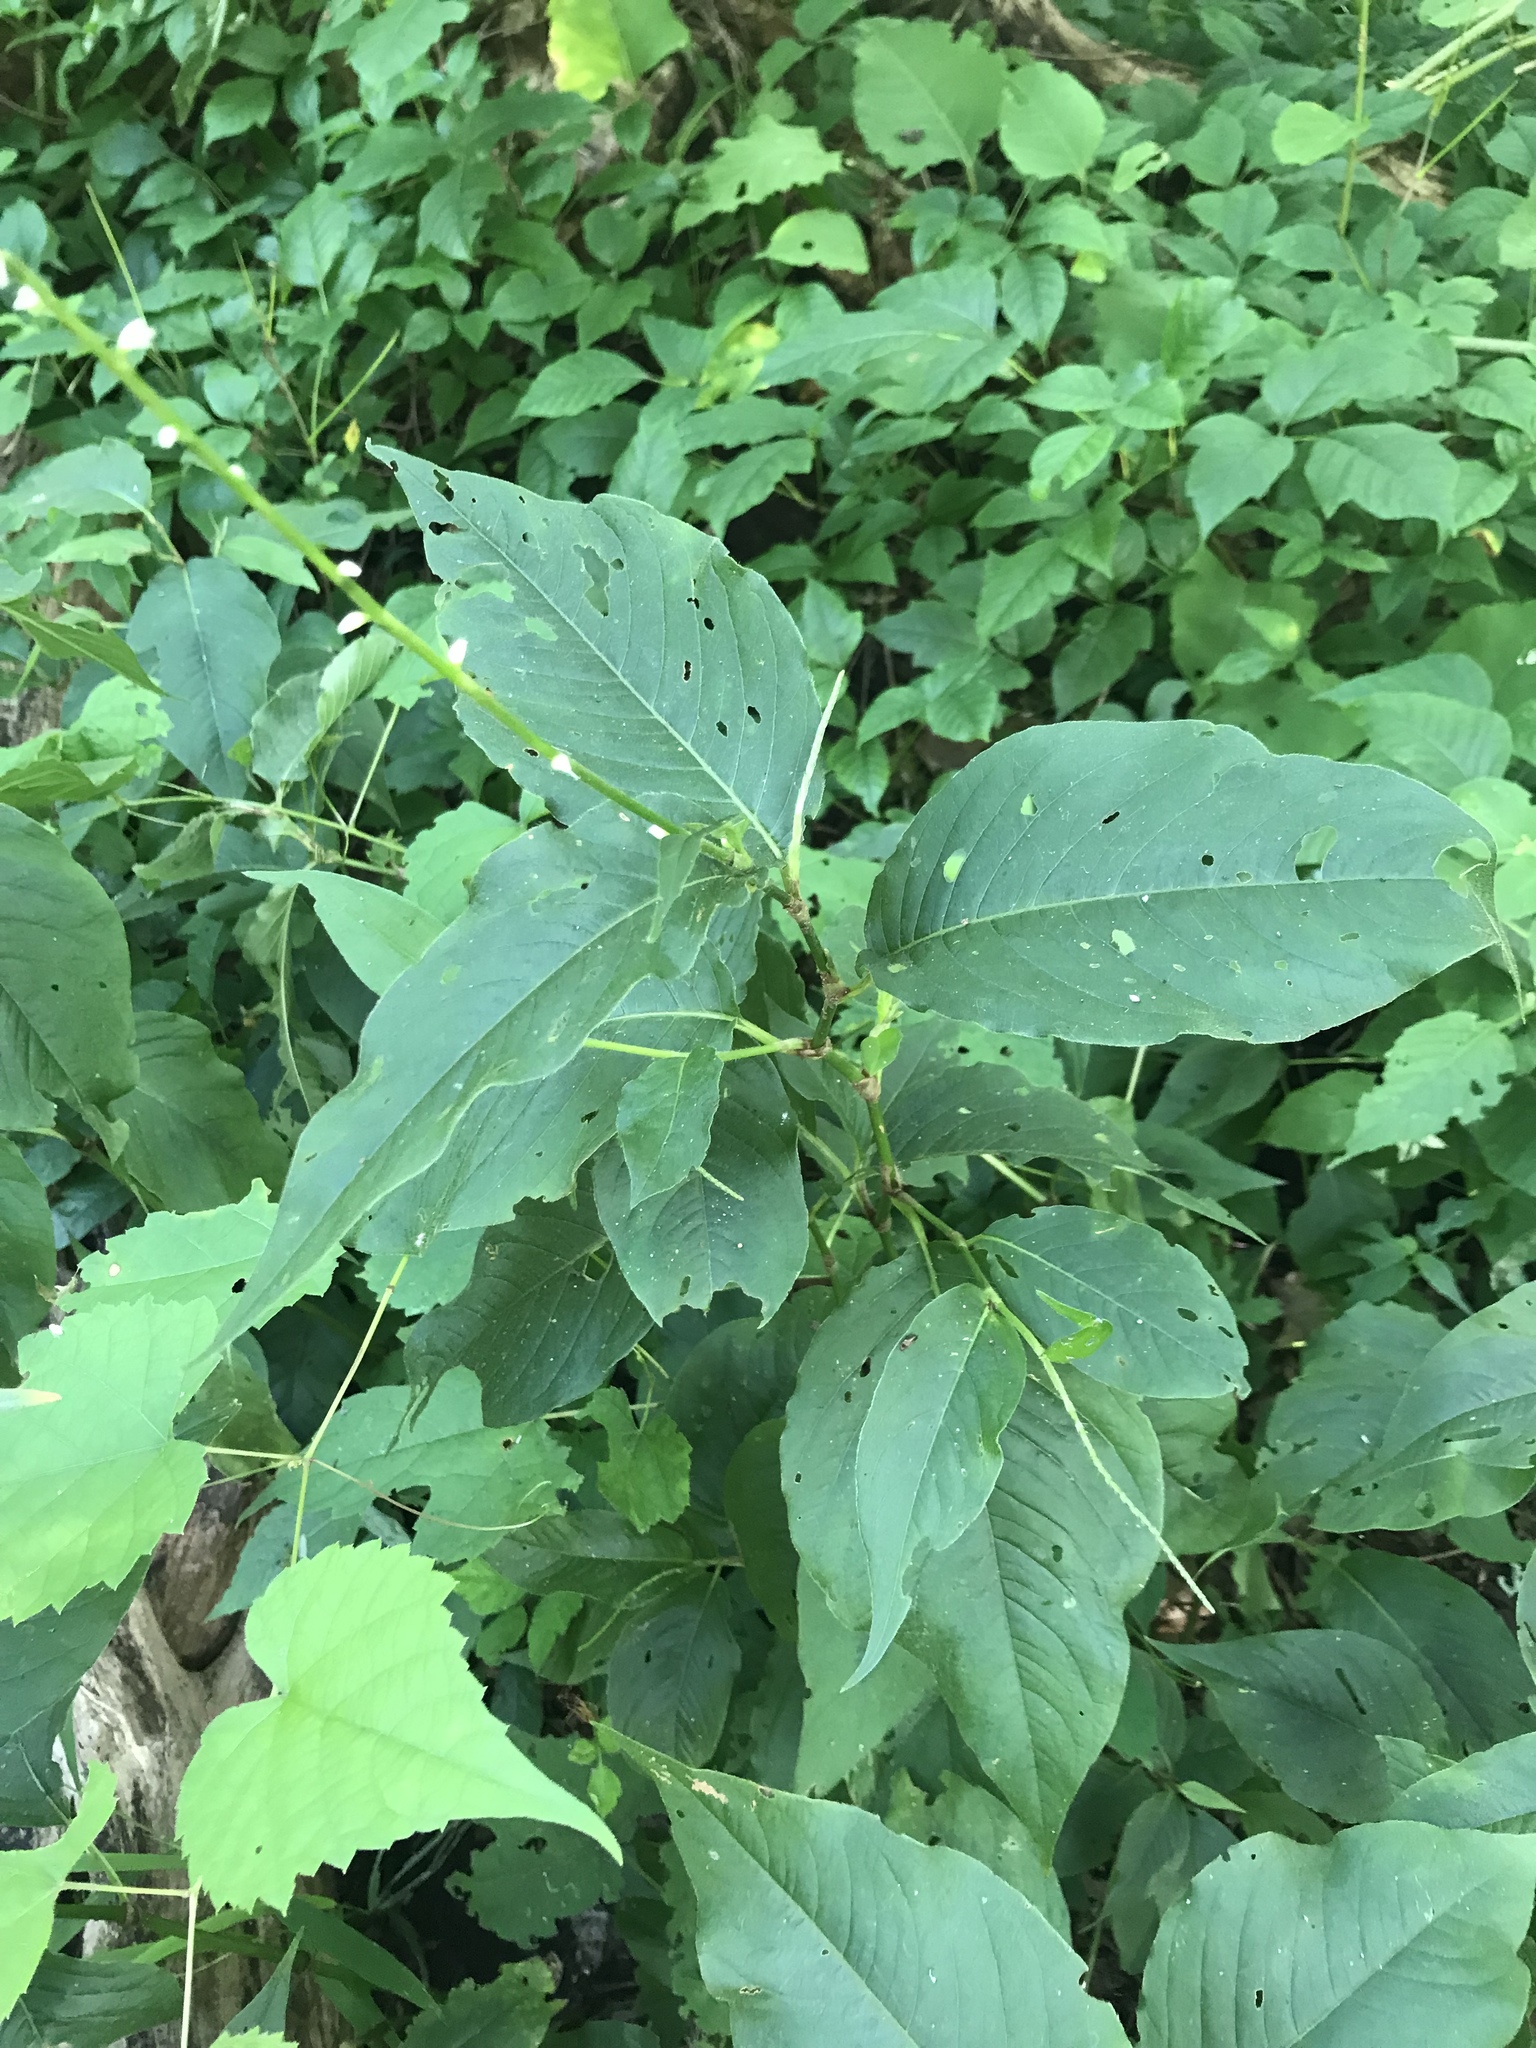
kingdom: Plantae
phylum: Tracheophyta
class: Magnoliopsida
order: Myrtales
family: Onagraceae
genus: Circaea
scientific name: Circaea canadensis
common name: Broad-leaved enchanter's nightshade
